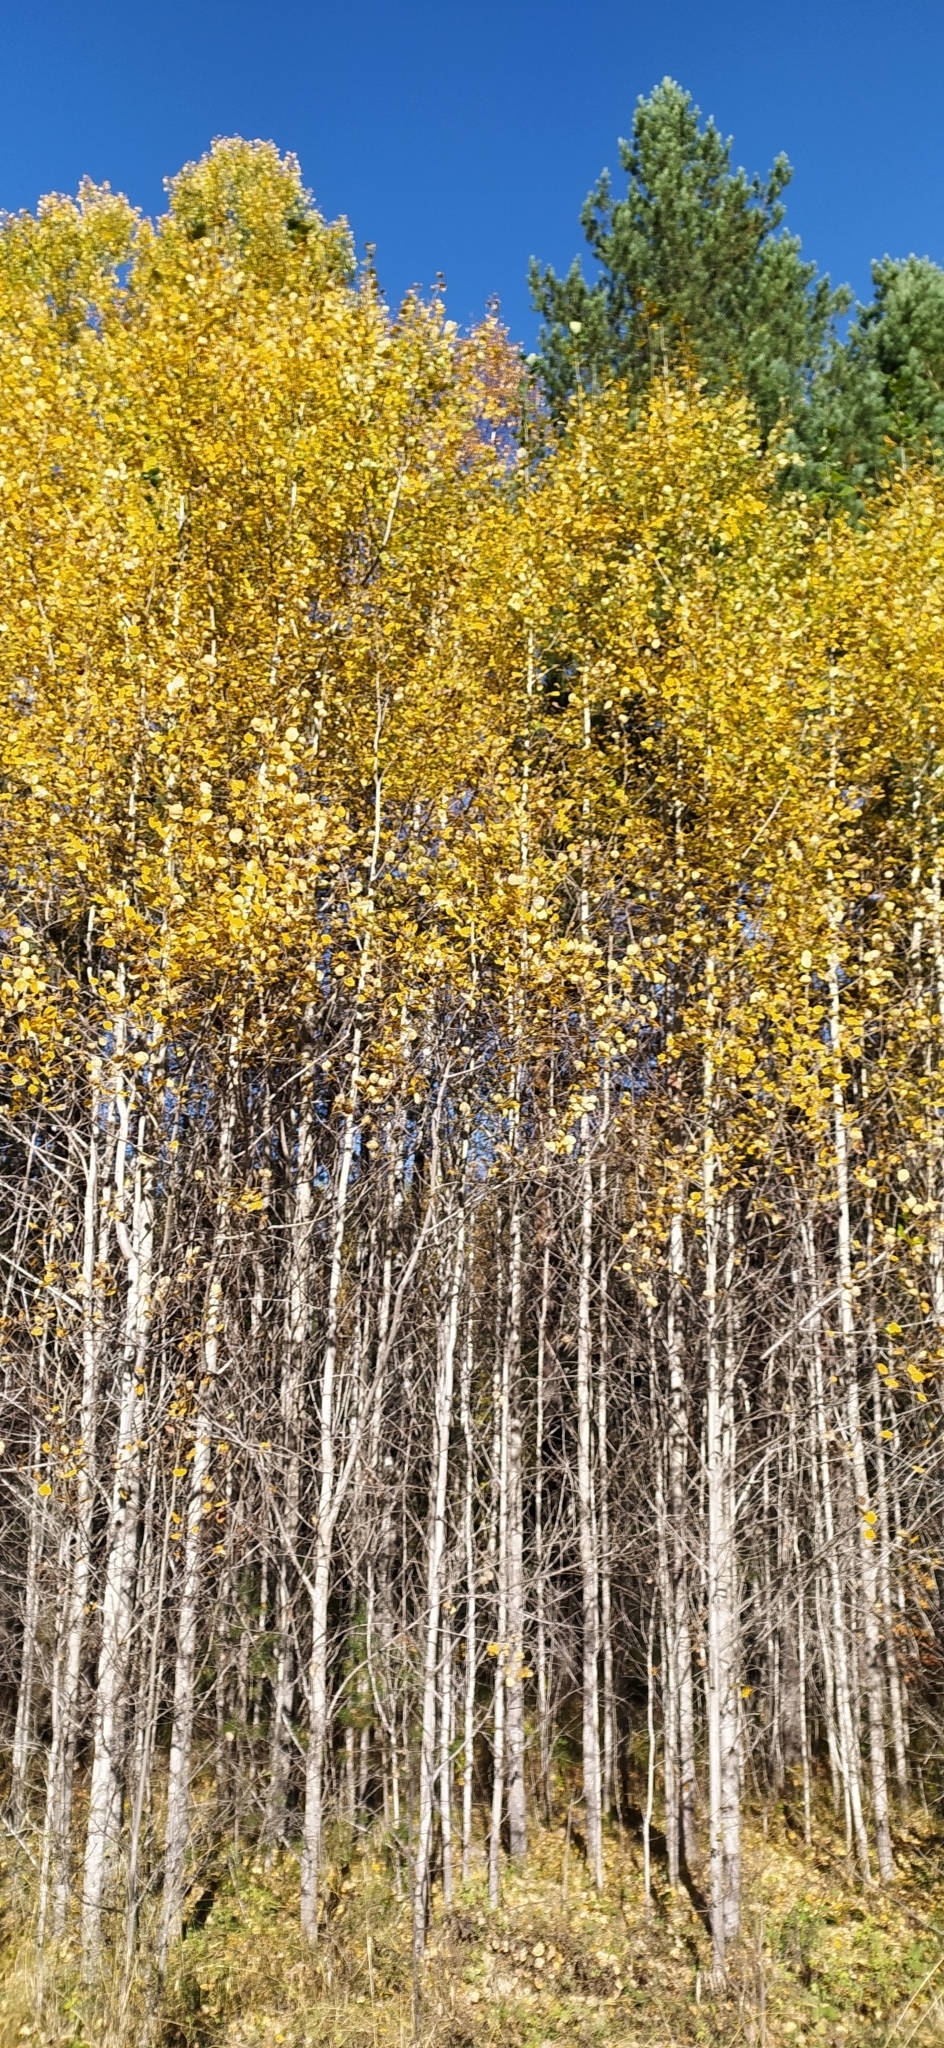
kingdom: Plantae
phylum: Tracheophyta
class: Magnoliopsida
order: Malpighiales
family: Salicaceae
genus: Populus
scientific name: Populus tremula
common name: European aspen
